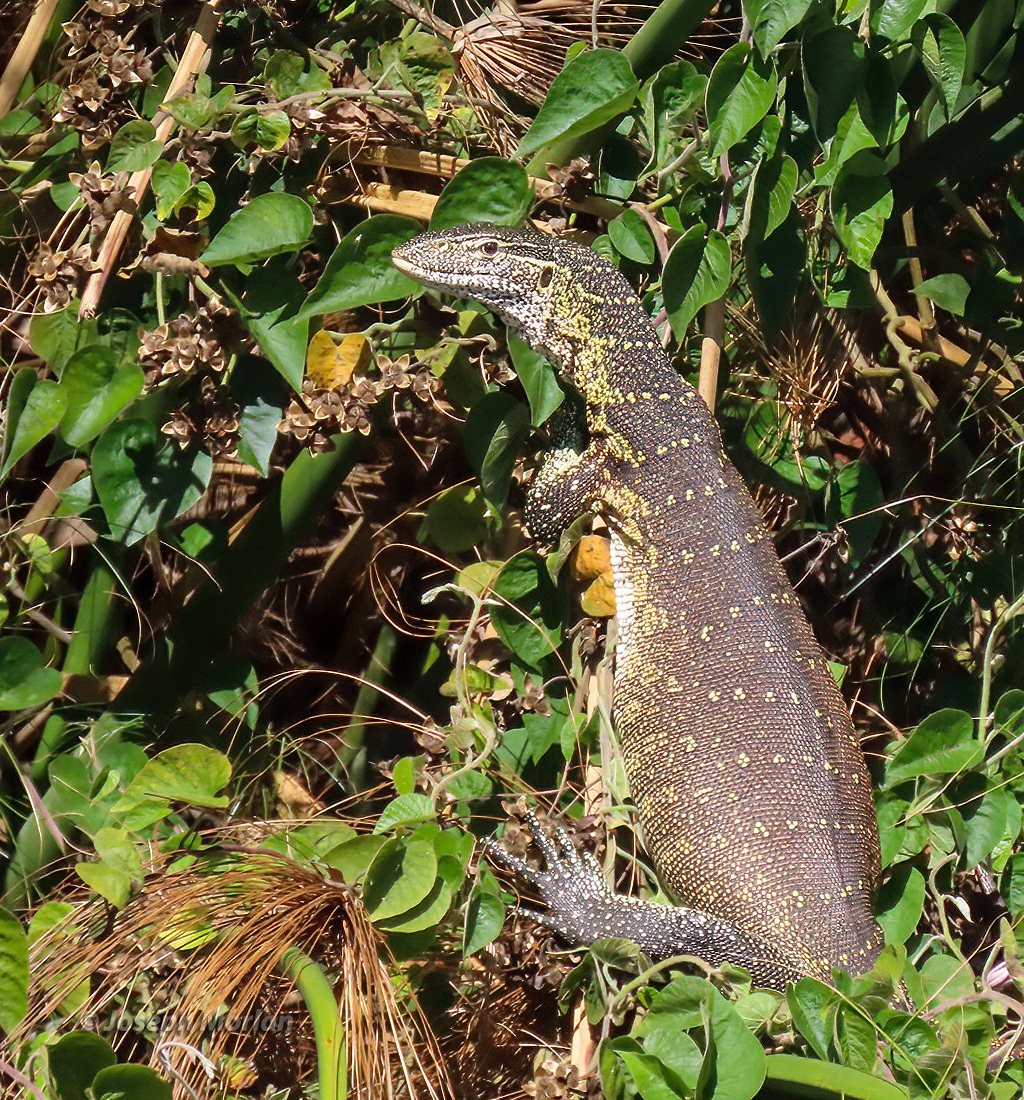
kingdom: Animalia
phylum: Chordata
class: Squamata
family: Varanidae
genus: Varanus
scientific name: Varanus niloticus
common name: Nile monitor
